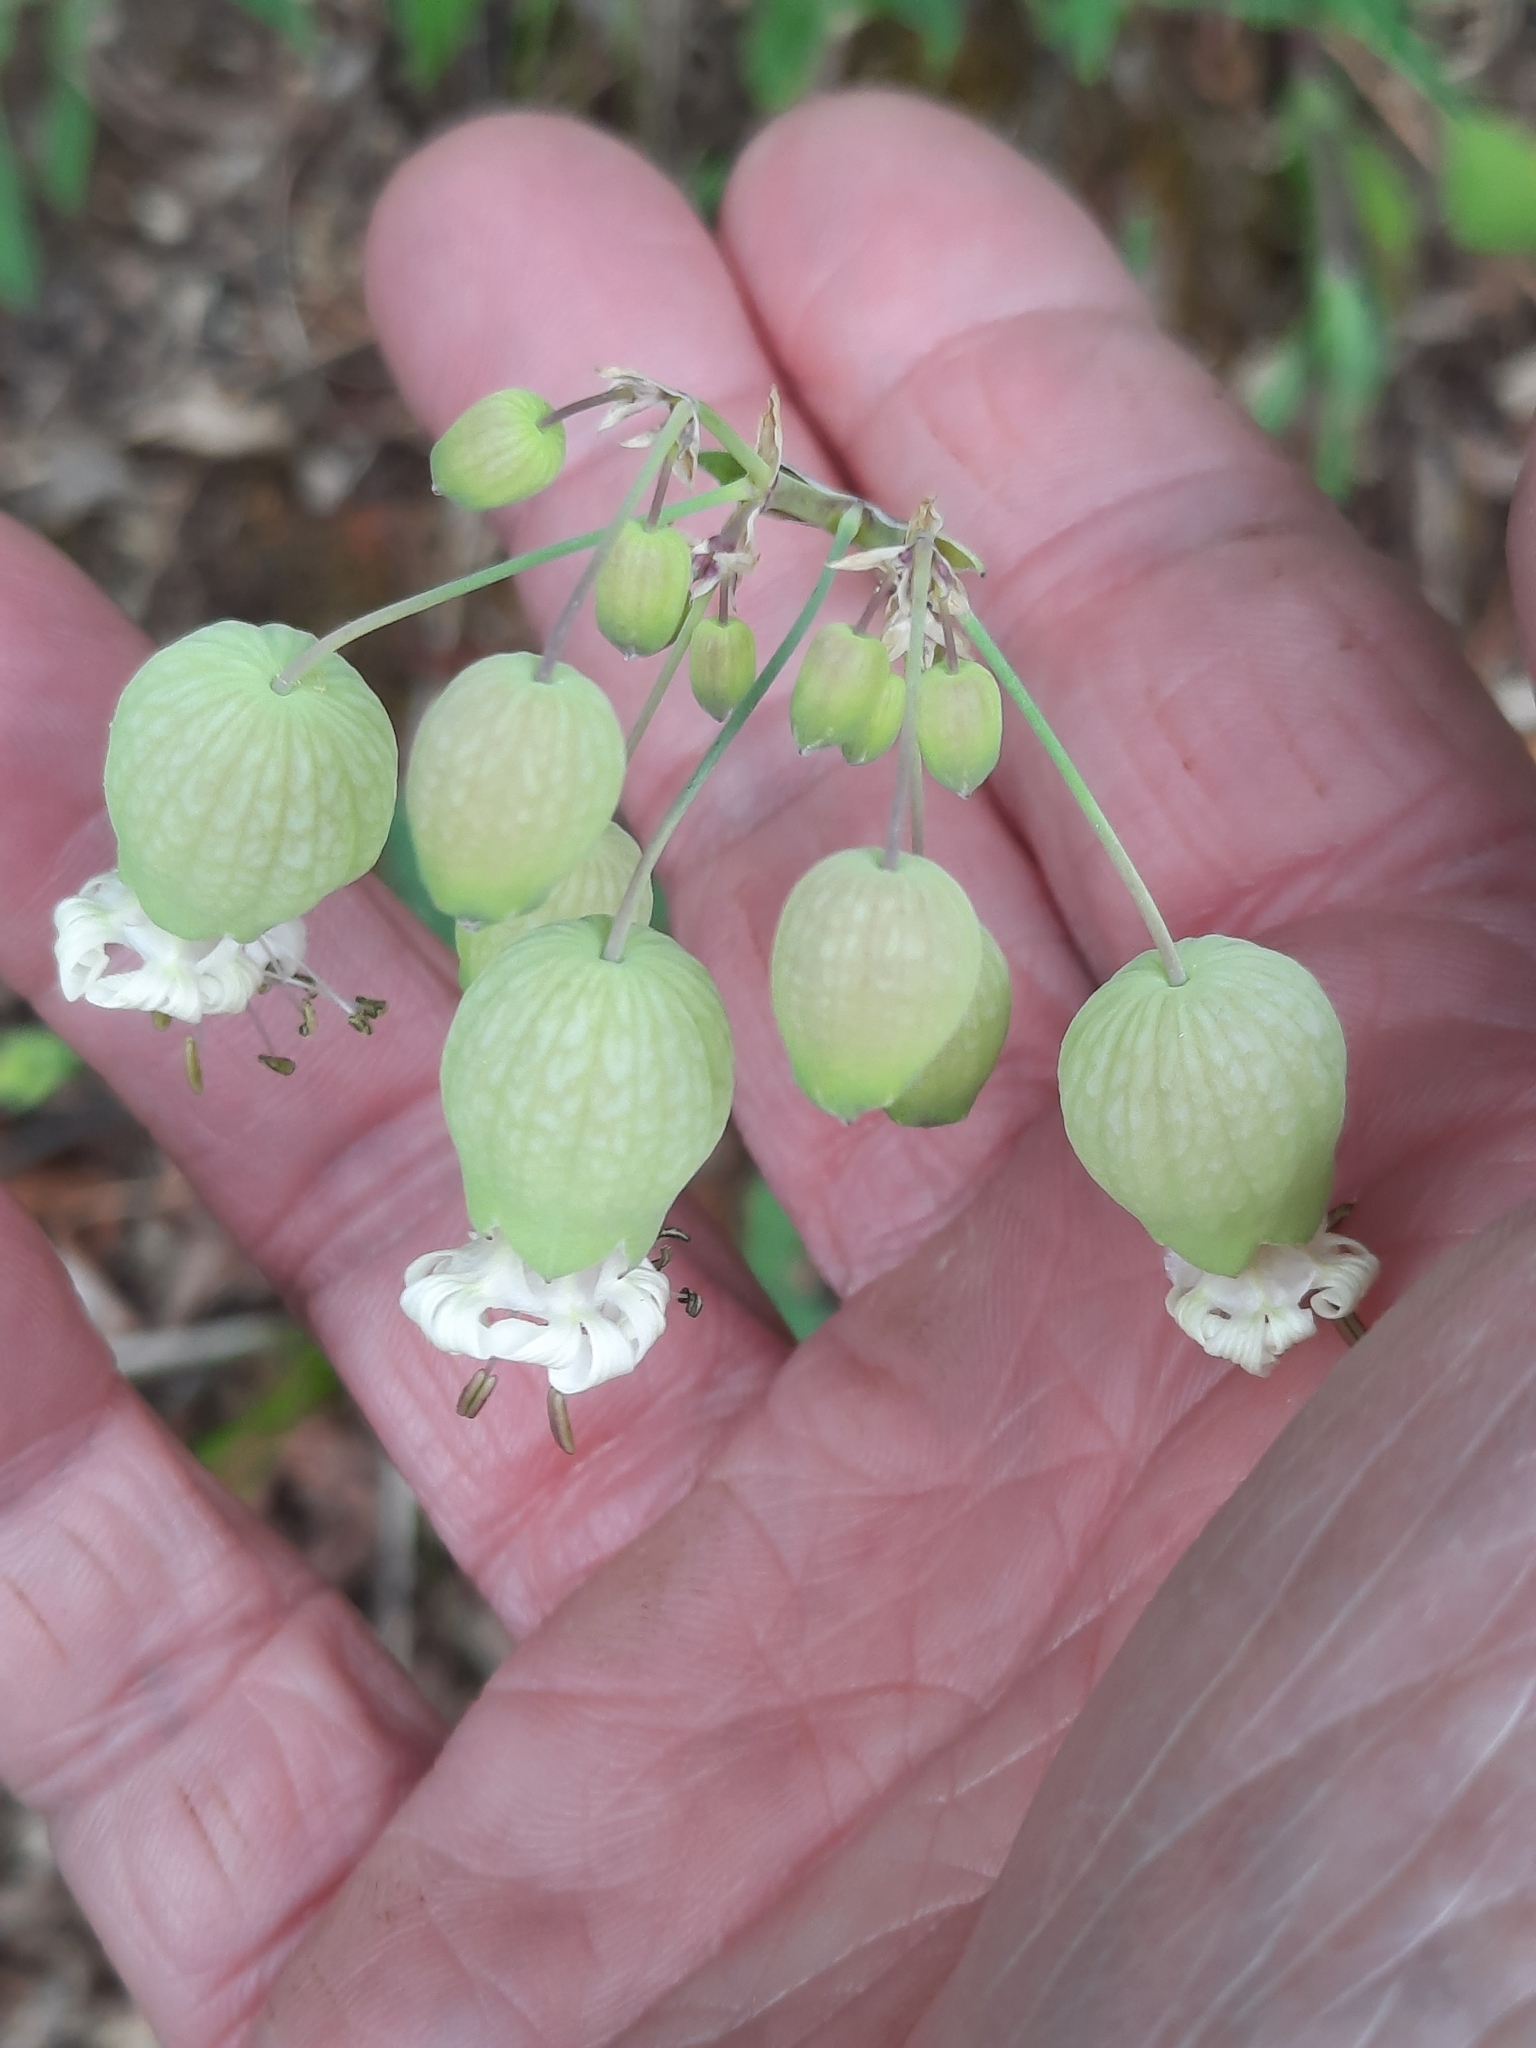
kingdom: Plantae
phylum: Tracheophyta
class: Magnoliopsida
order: Caryophyllales
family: Caryophyllaceae
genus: Silene
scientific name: Silene vulgaris
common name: Bladder campion
